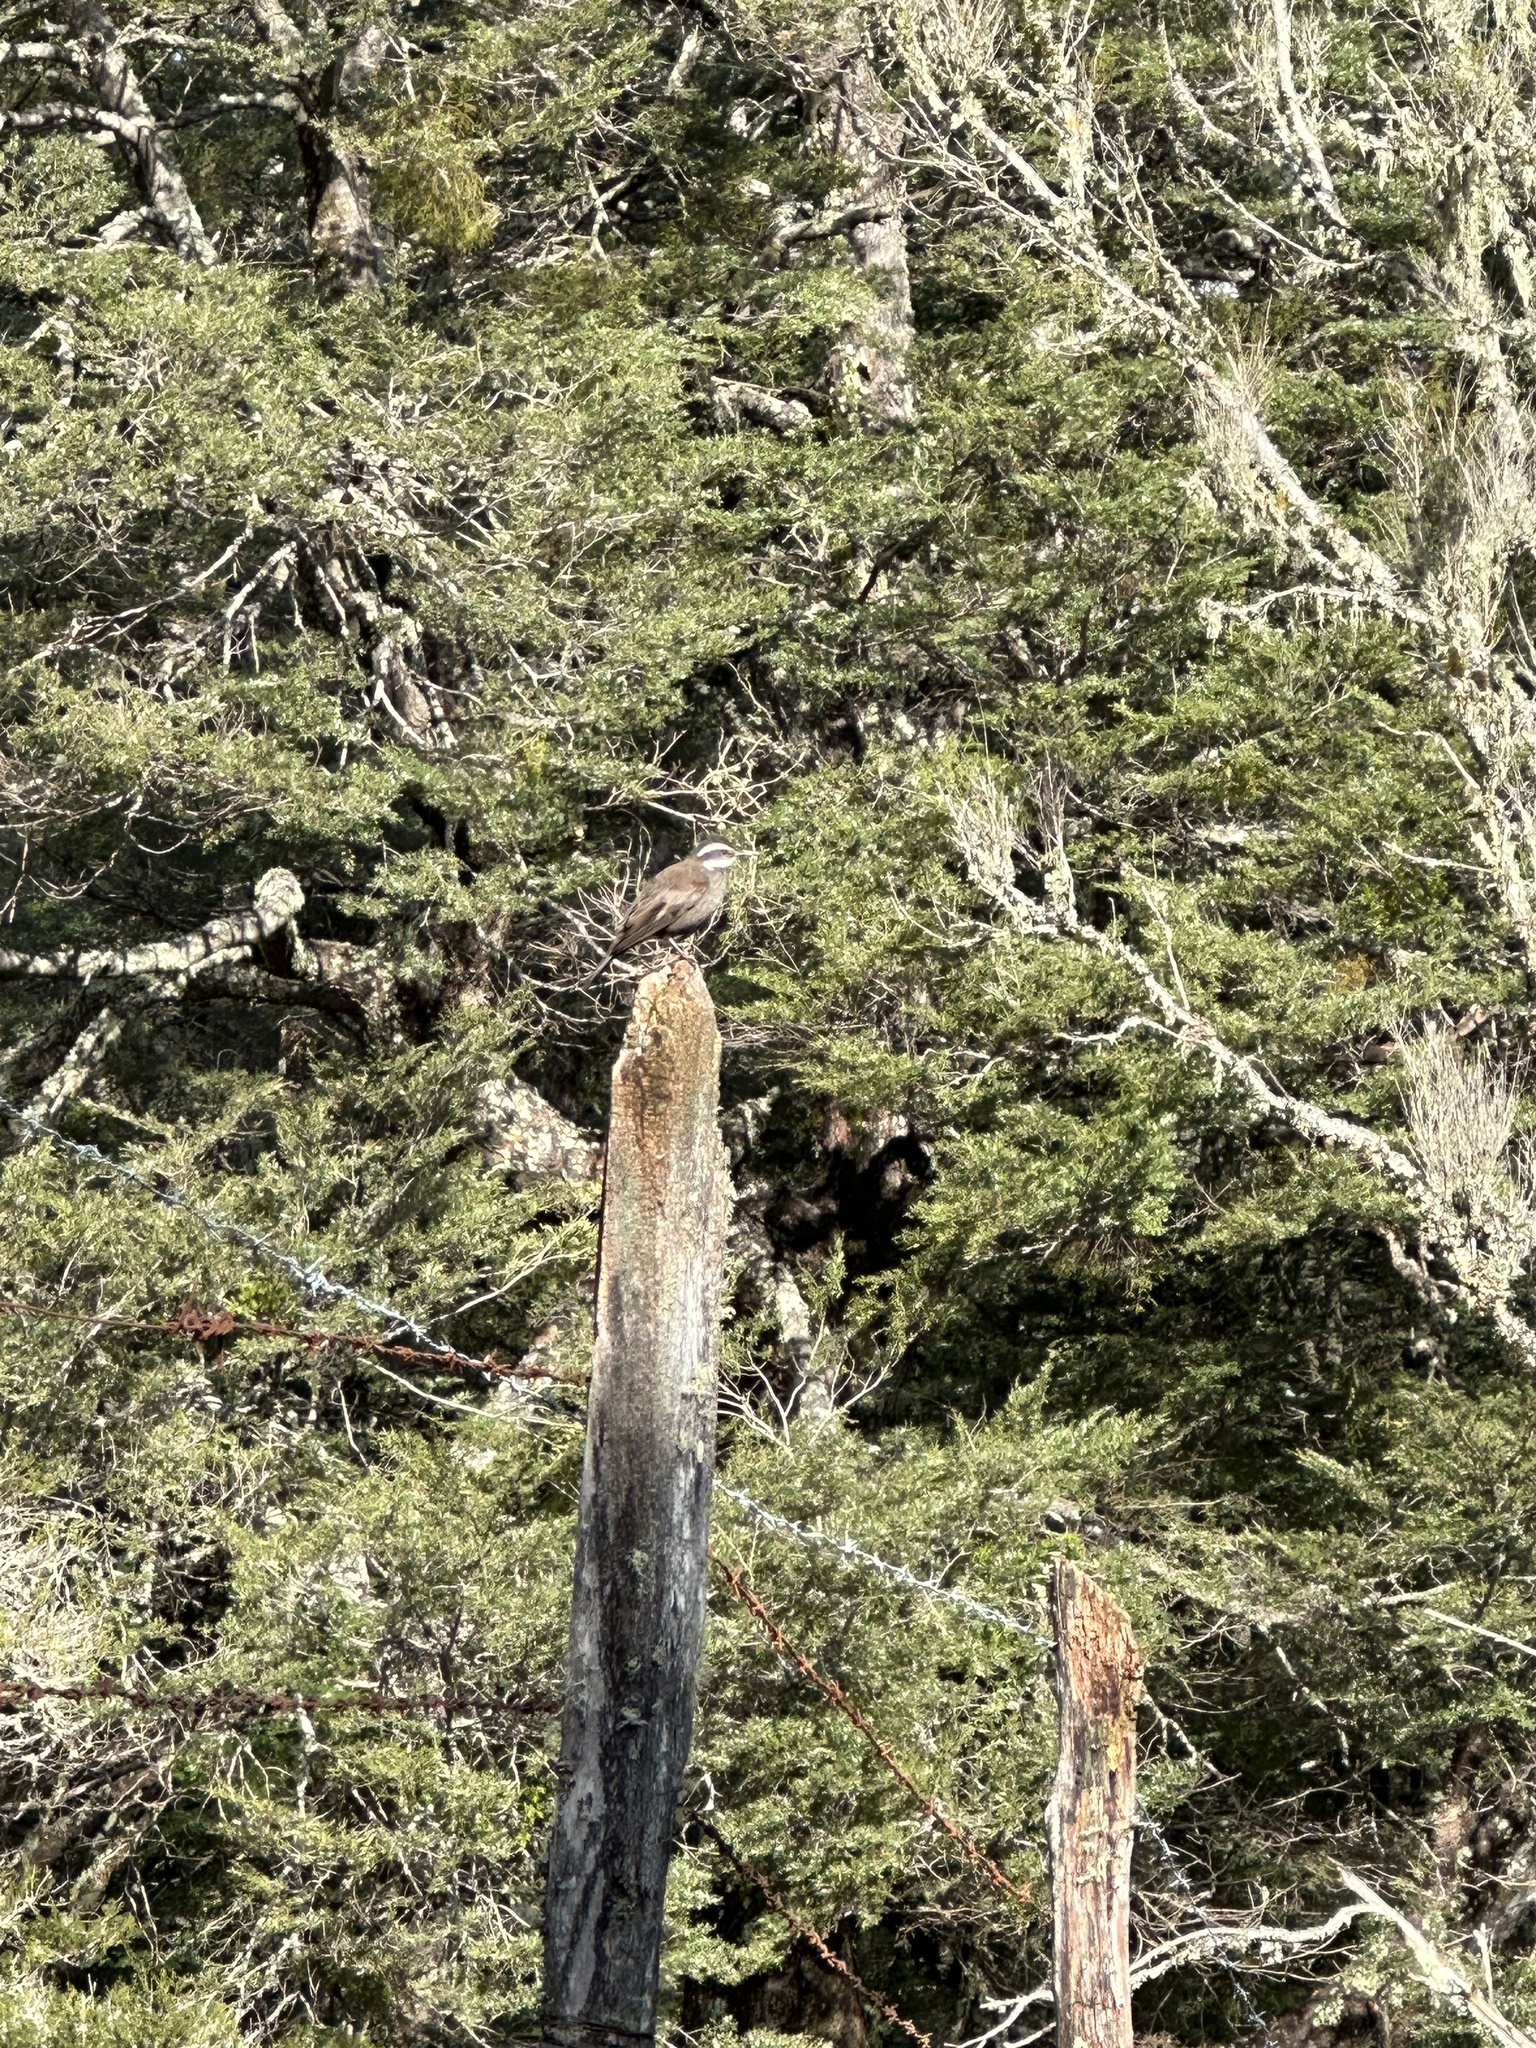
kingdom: Animalia
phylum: Chordata
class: Aves
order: Passeriformes
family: Furnariidae
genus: Cinclodes
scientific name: Cinclodes patagonicus
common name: Dark-bellied cinclodes
